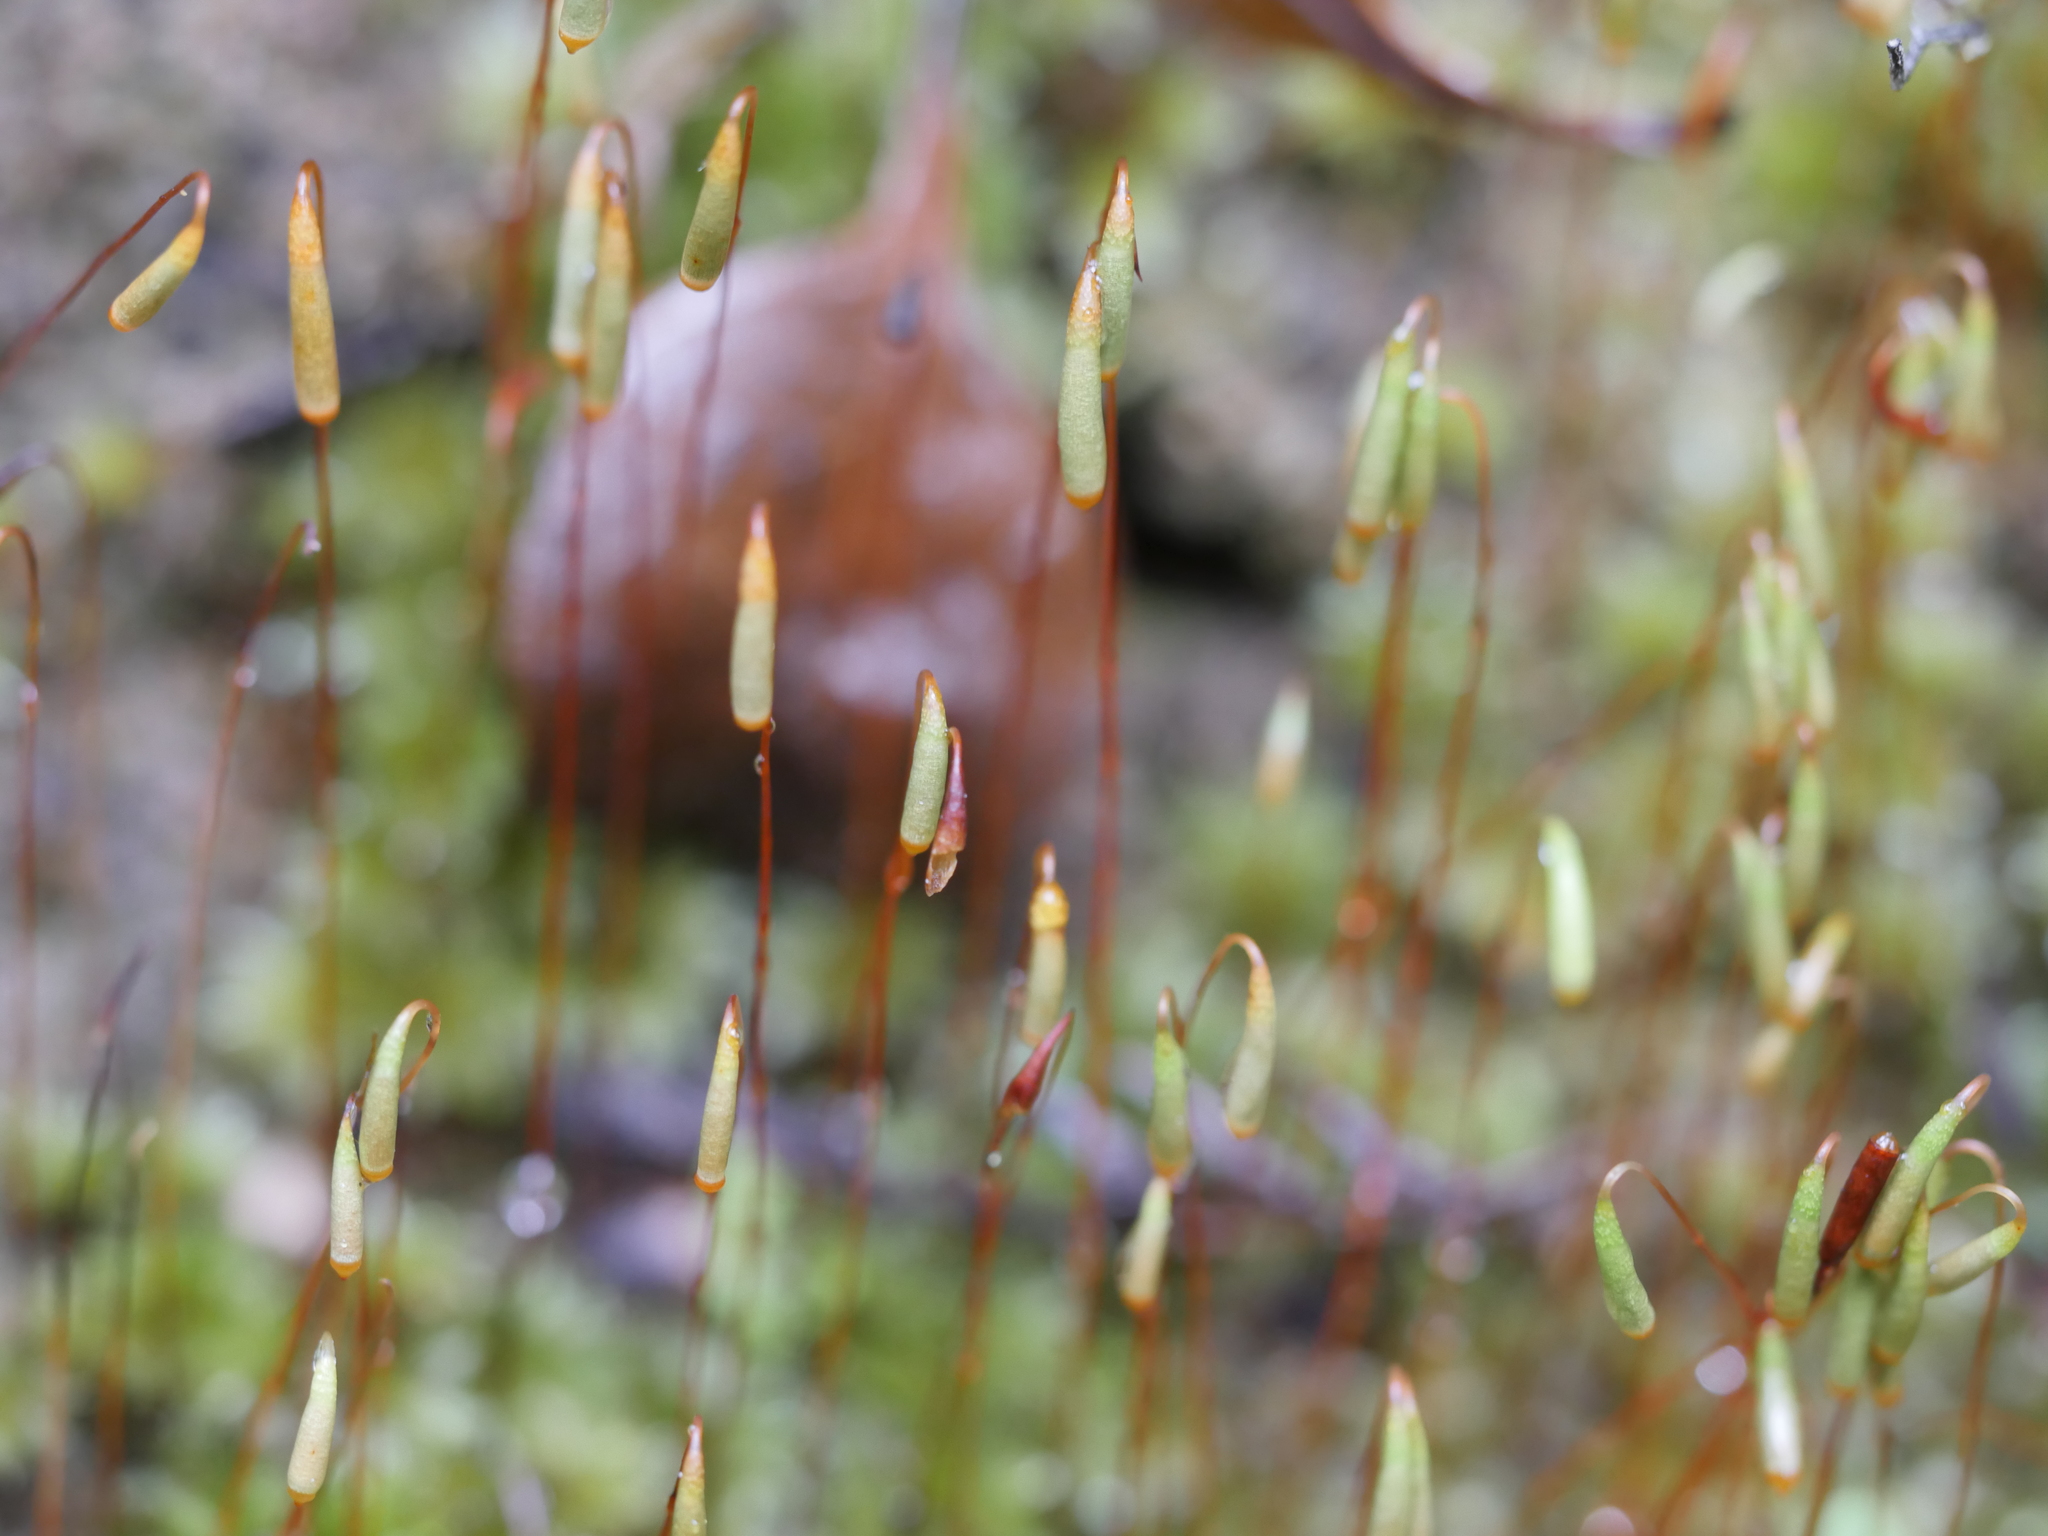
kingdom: Plantae
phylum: Bryophyta
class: Bryopsida
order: Bryales
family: Bryaceae
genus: Rosulabryum
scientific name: Rosulabryum subtomentosum
